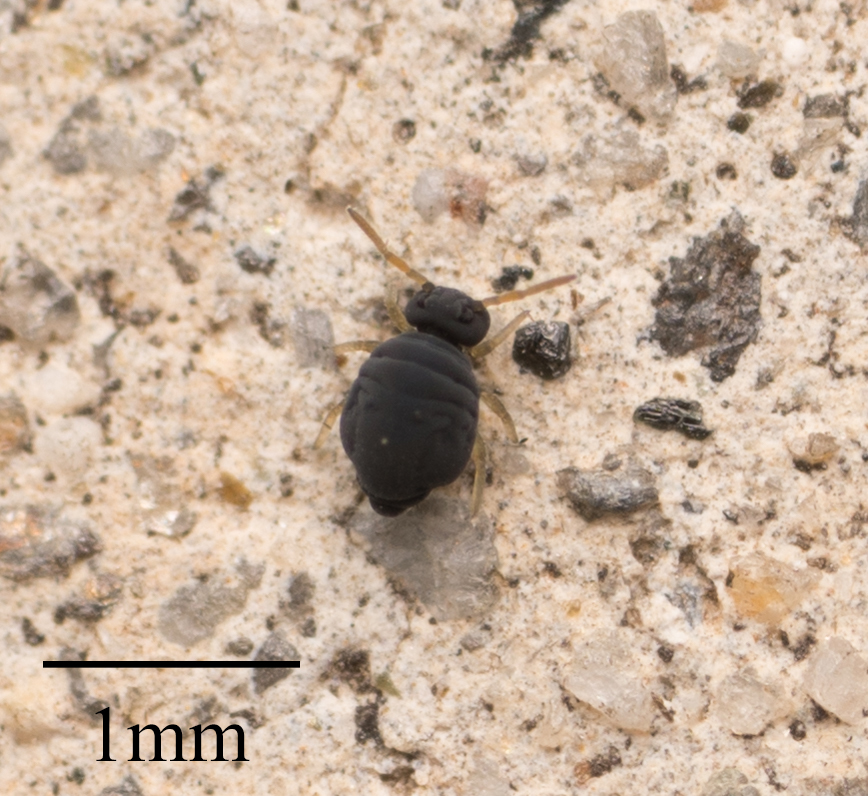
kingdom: Animalia
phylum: Arthropoda
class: Collembola
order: Symphypleona
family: Katiannidae
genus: Sminthurinus
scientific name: Sminthurinus atrapallidus
